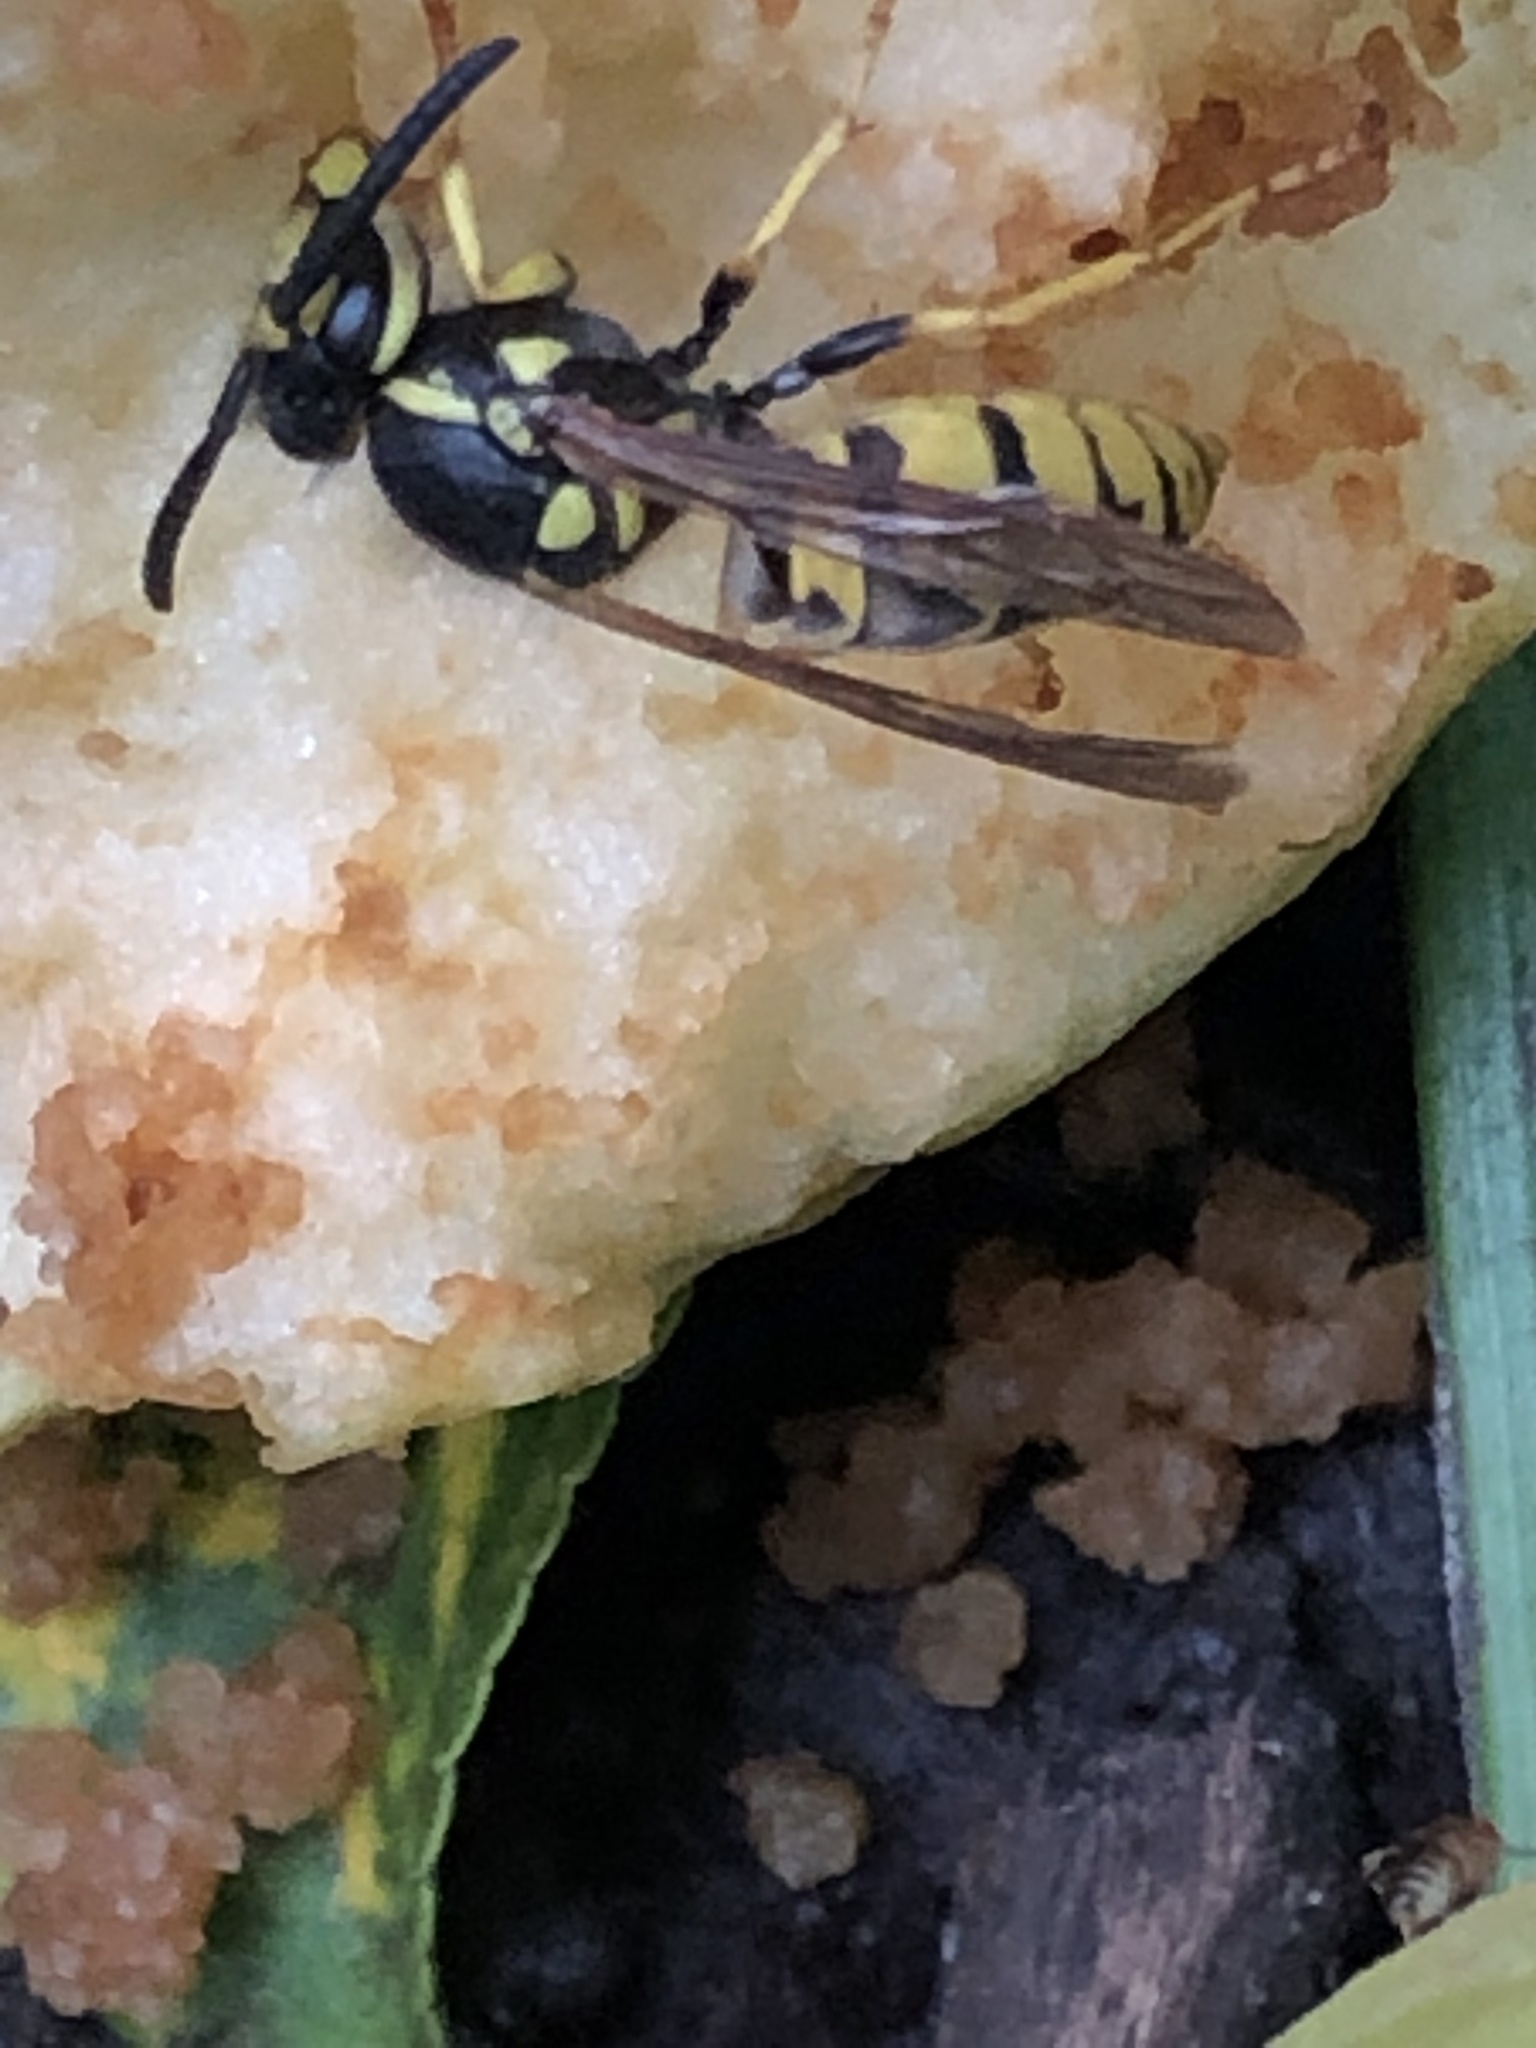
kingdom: Animalia
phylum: Arthropoda
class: Insecta
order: Hymenoptera
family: Vespidae
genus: Vespula
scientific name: Vespula germanica
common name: German wasp
